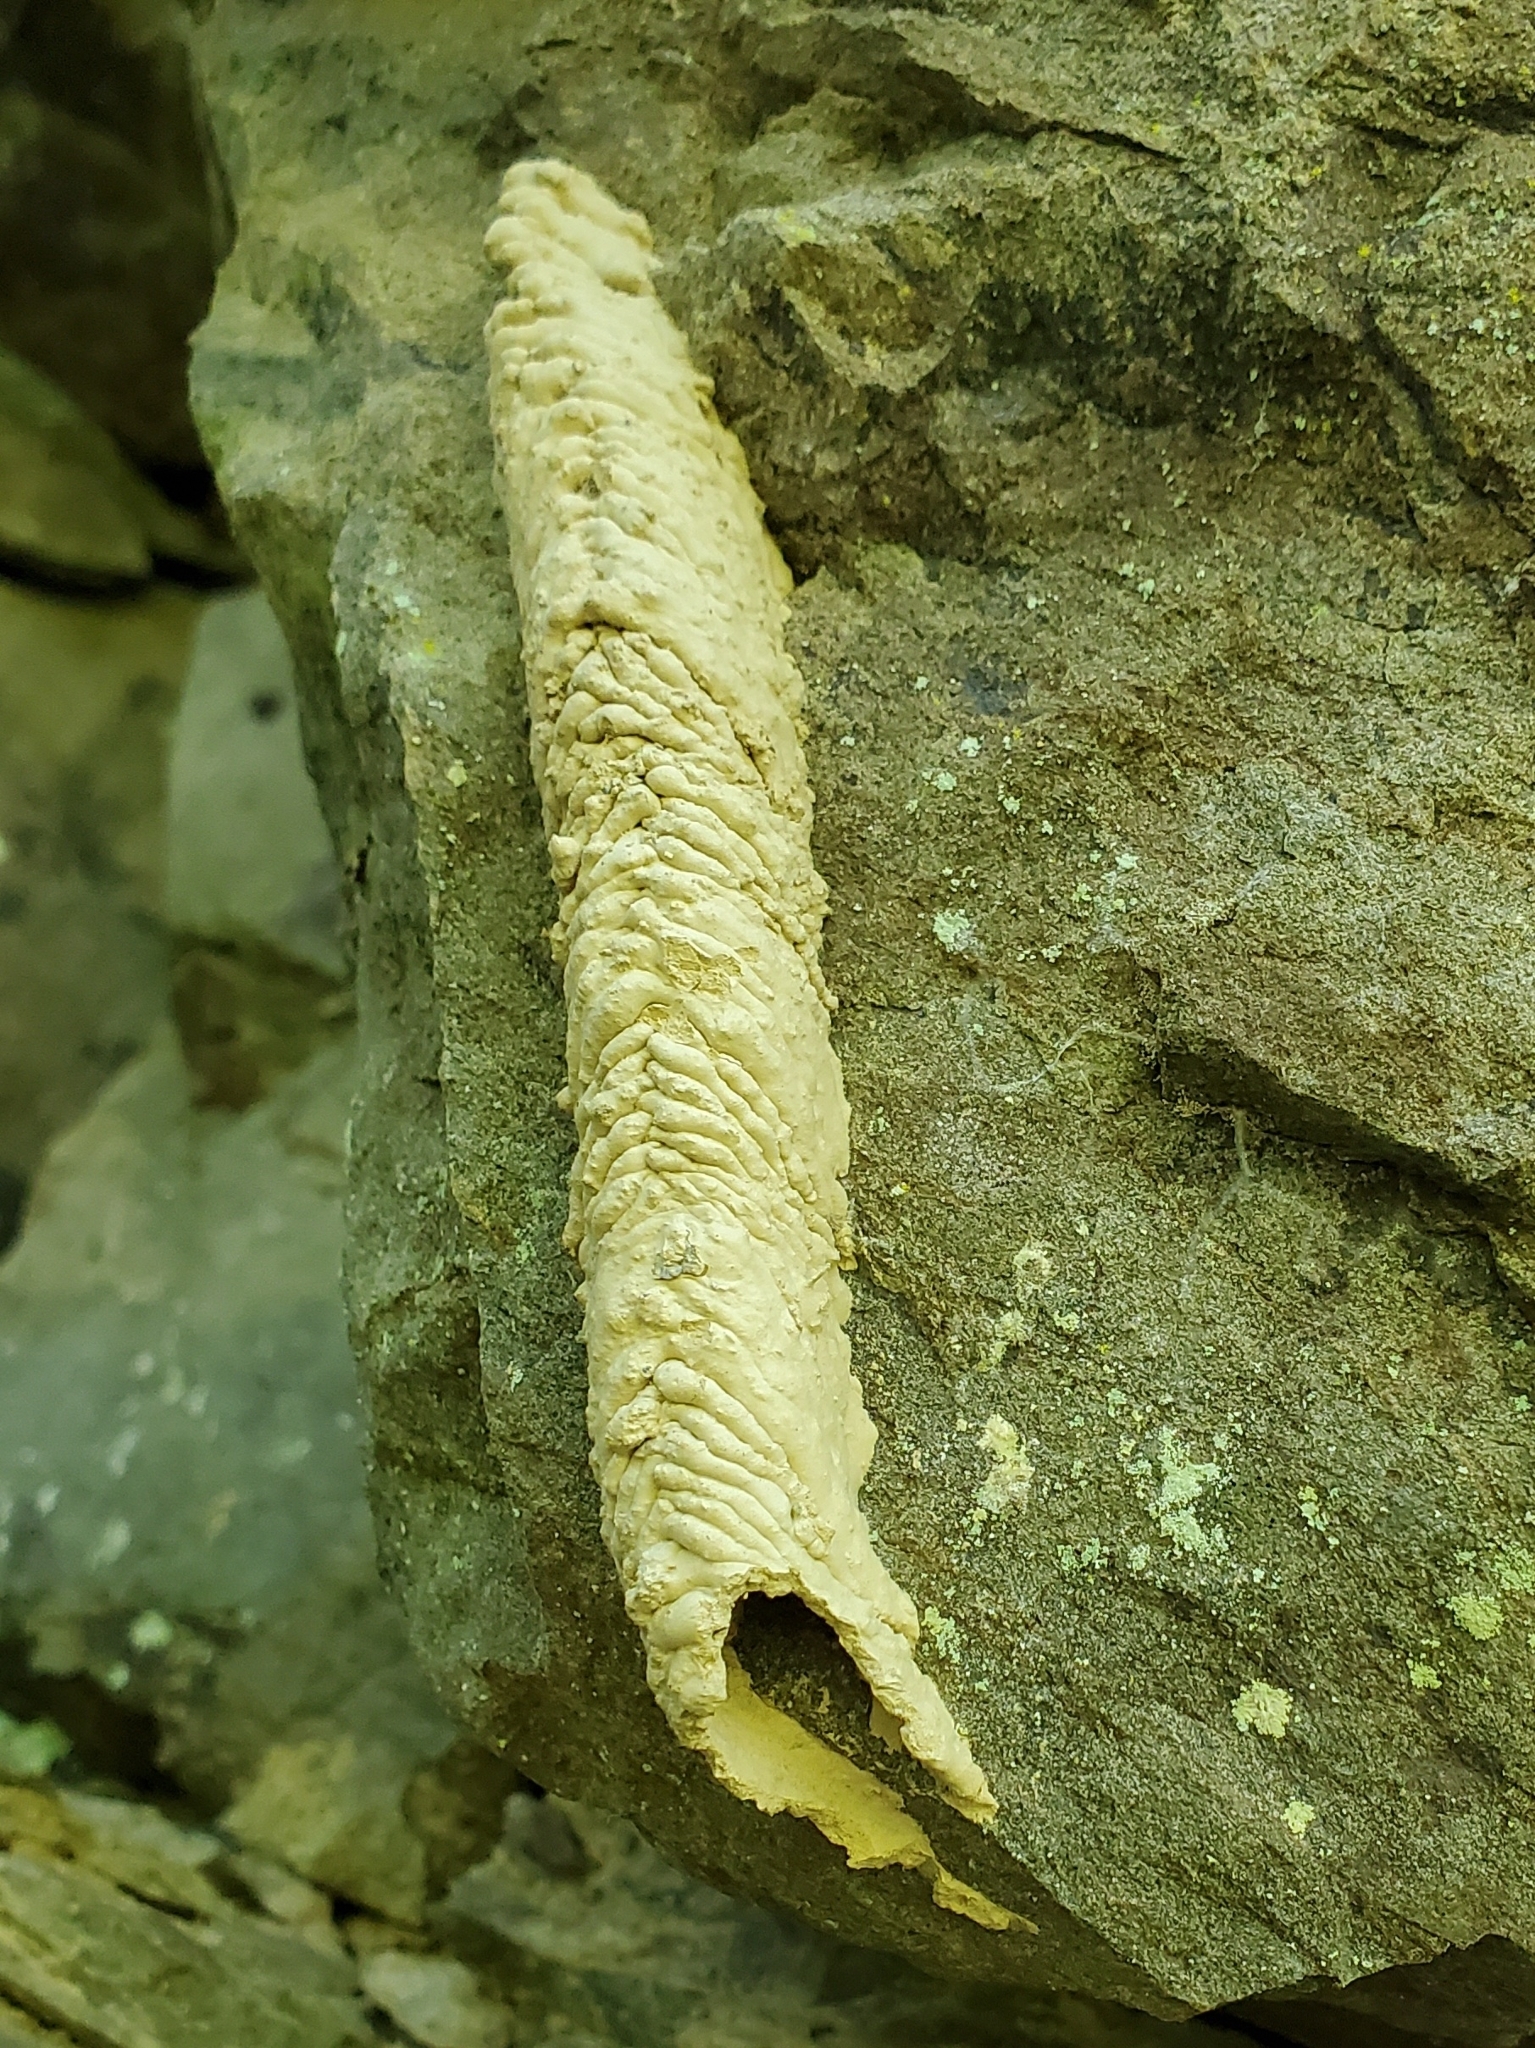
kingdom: Animalia
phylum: Arthropoda
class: Insecta
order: Hymenoptera
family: Crabronidae
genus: Trypoxylon
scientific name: Trypoxylon politum
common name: Organ-pipe mud-dauber wasp
